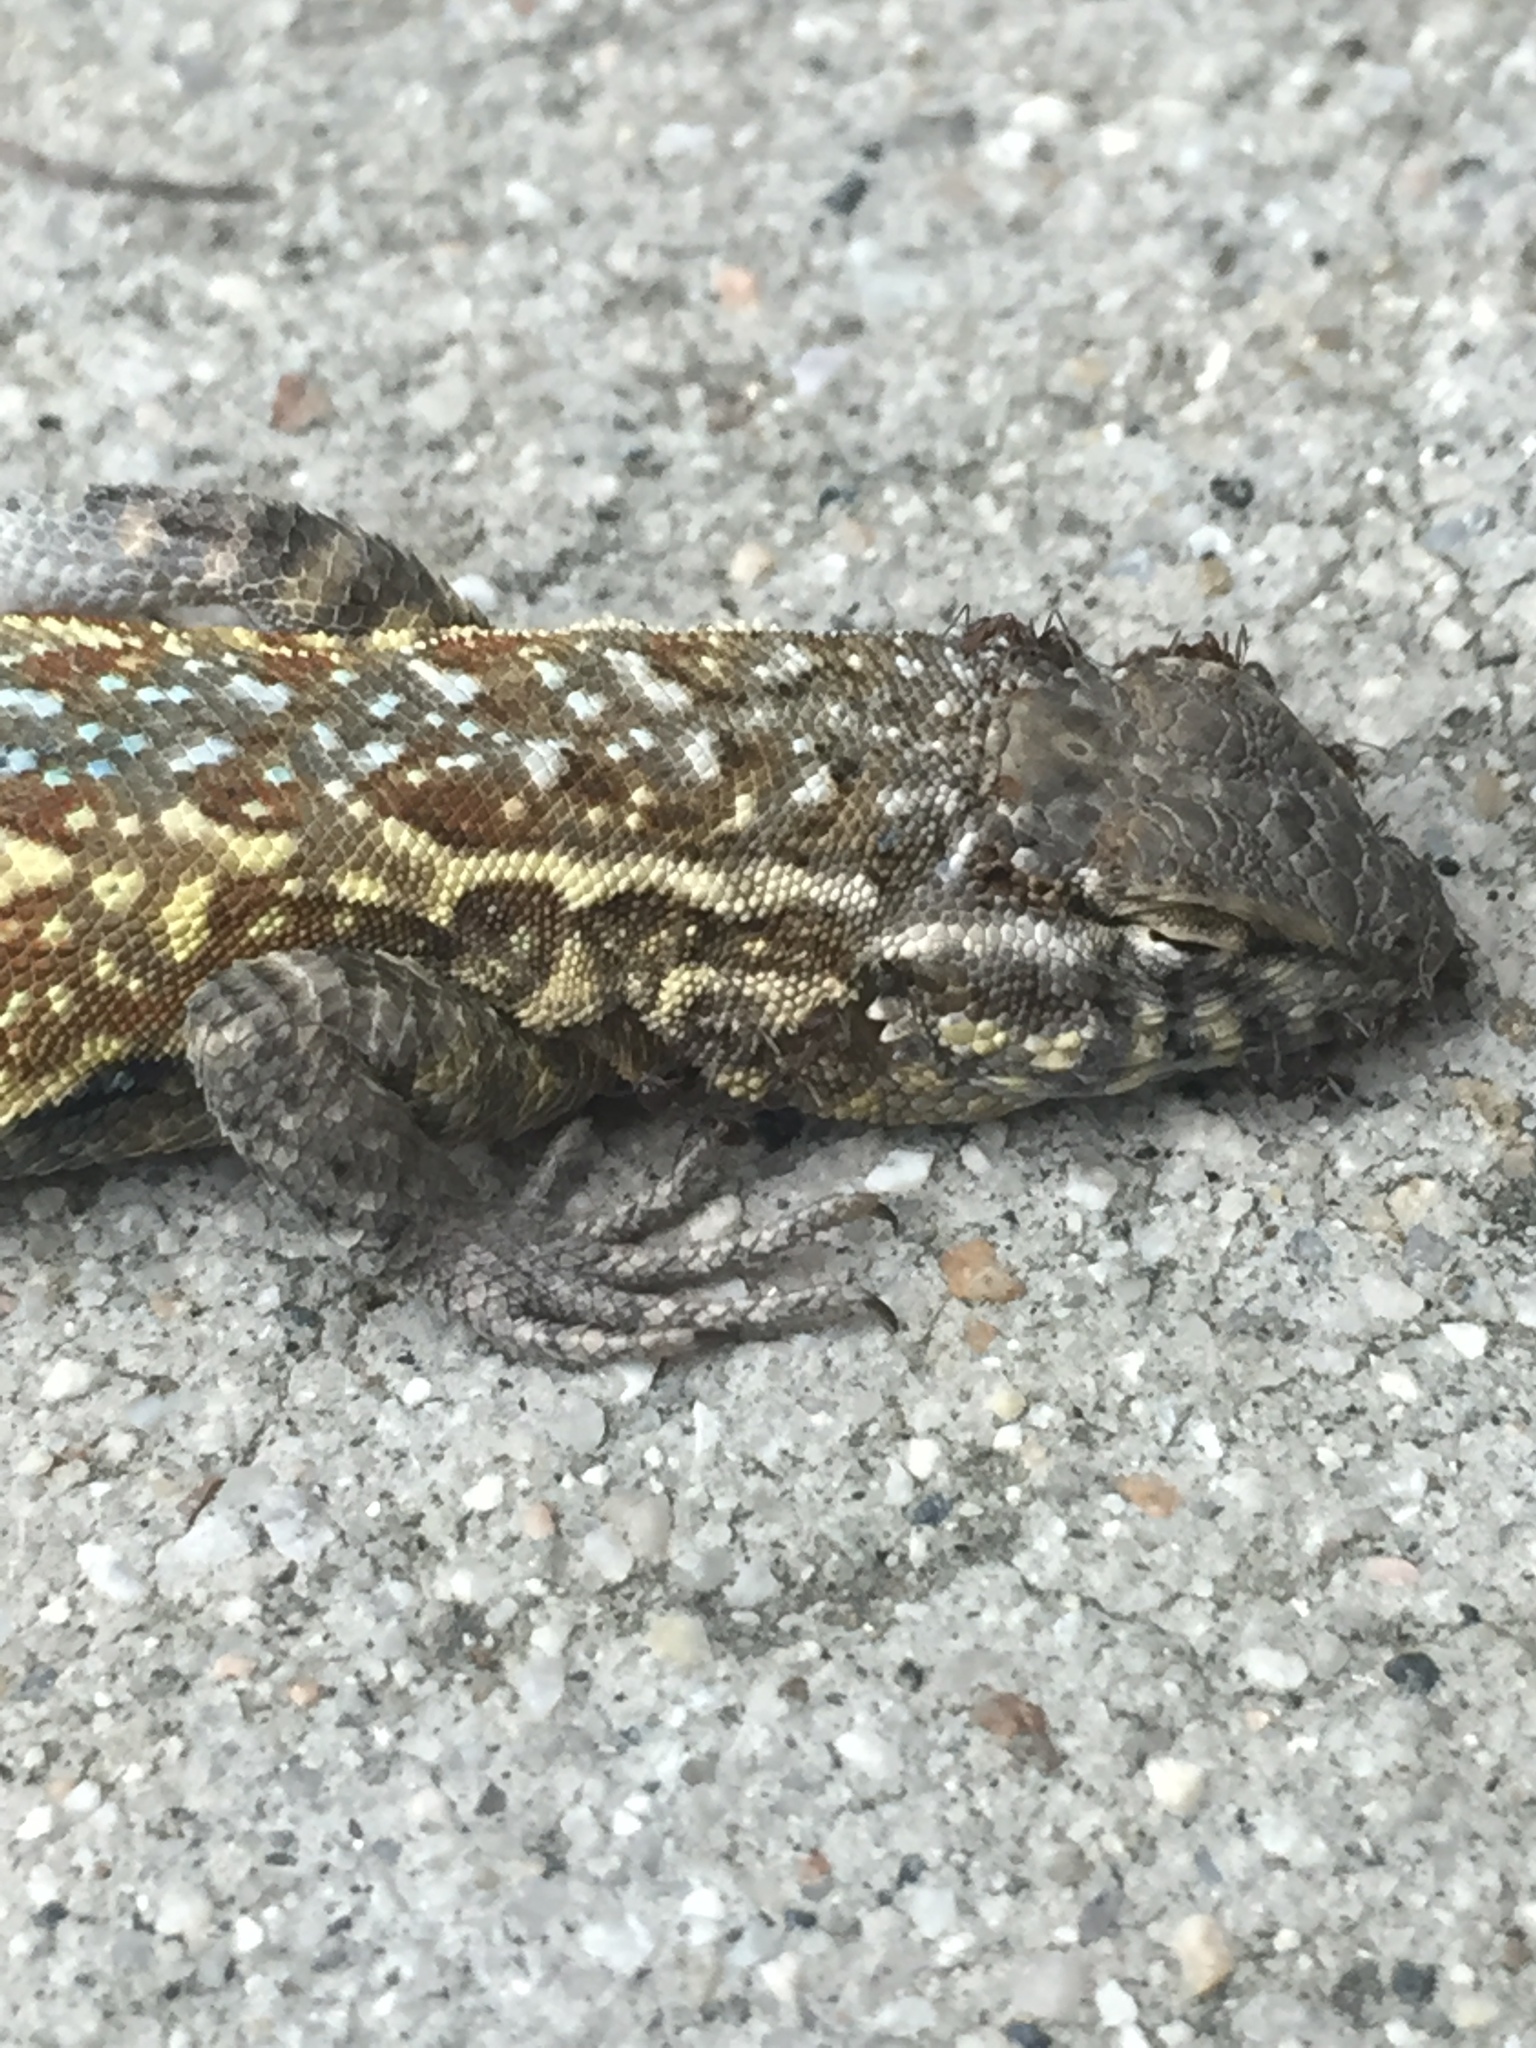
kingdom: Animalia
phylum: Chordata
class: Squamata
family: Phrynosomatidae
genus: Uta
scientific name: Uta stansburiana
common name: Side-blotched lizard
